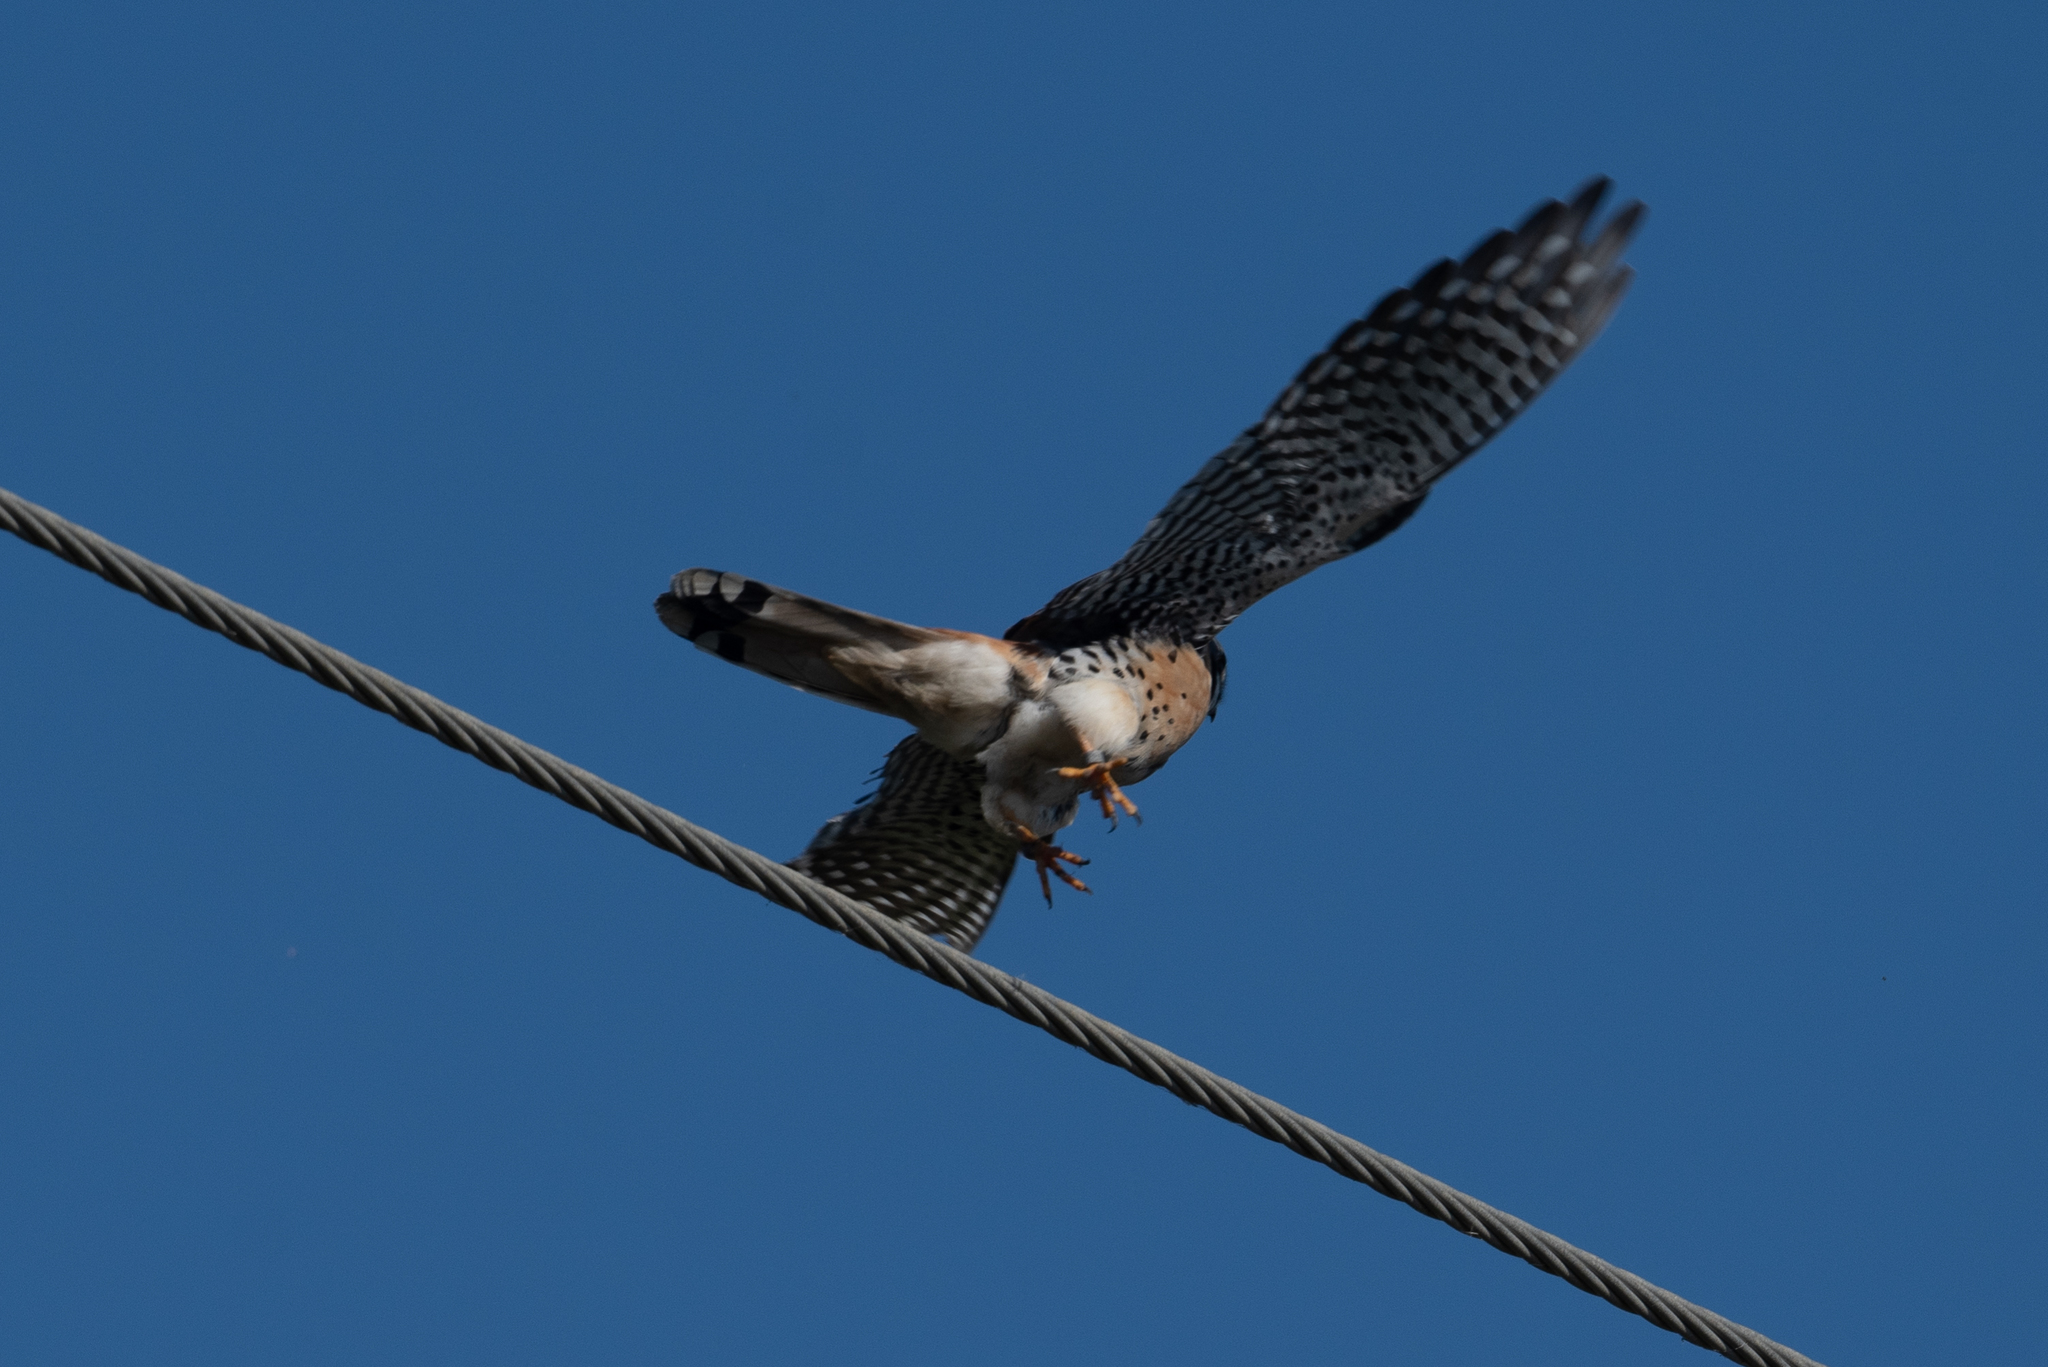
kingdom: Animalia
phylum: Chordata
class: Aves
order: Falconiformes
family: Falconidae
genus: Falco
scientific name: Falco sparverius
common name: American kestrel
